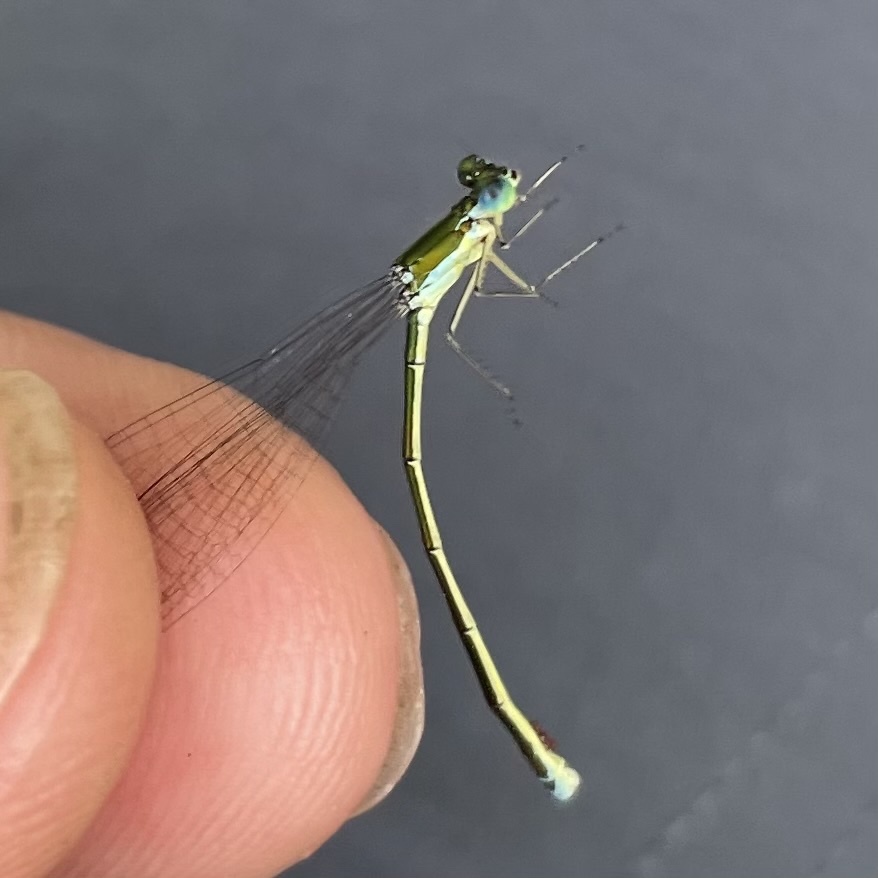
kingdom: Animalia
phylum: Arthropoda
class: Insecta
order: Odonata
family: Coenagrionidae
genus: Nehalennia
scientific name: Nehalennia irene
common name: Sedge sprite
